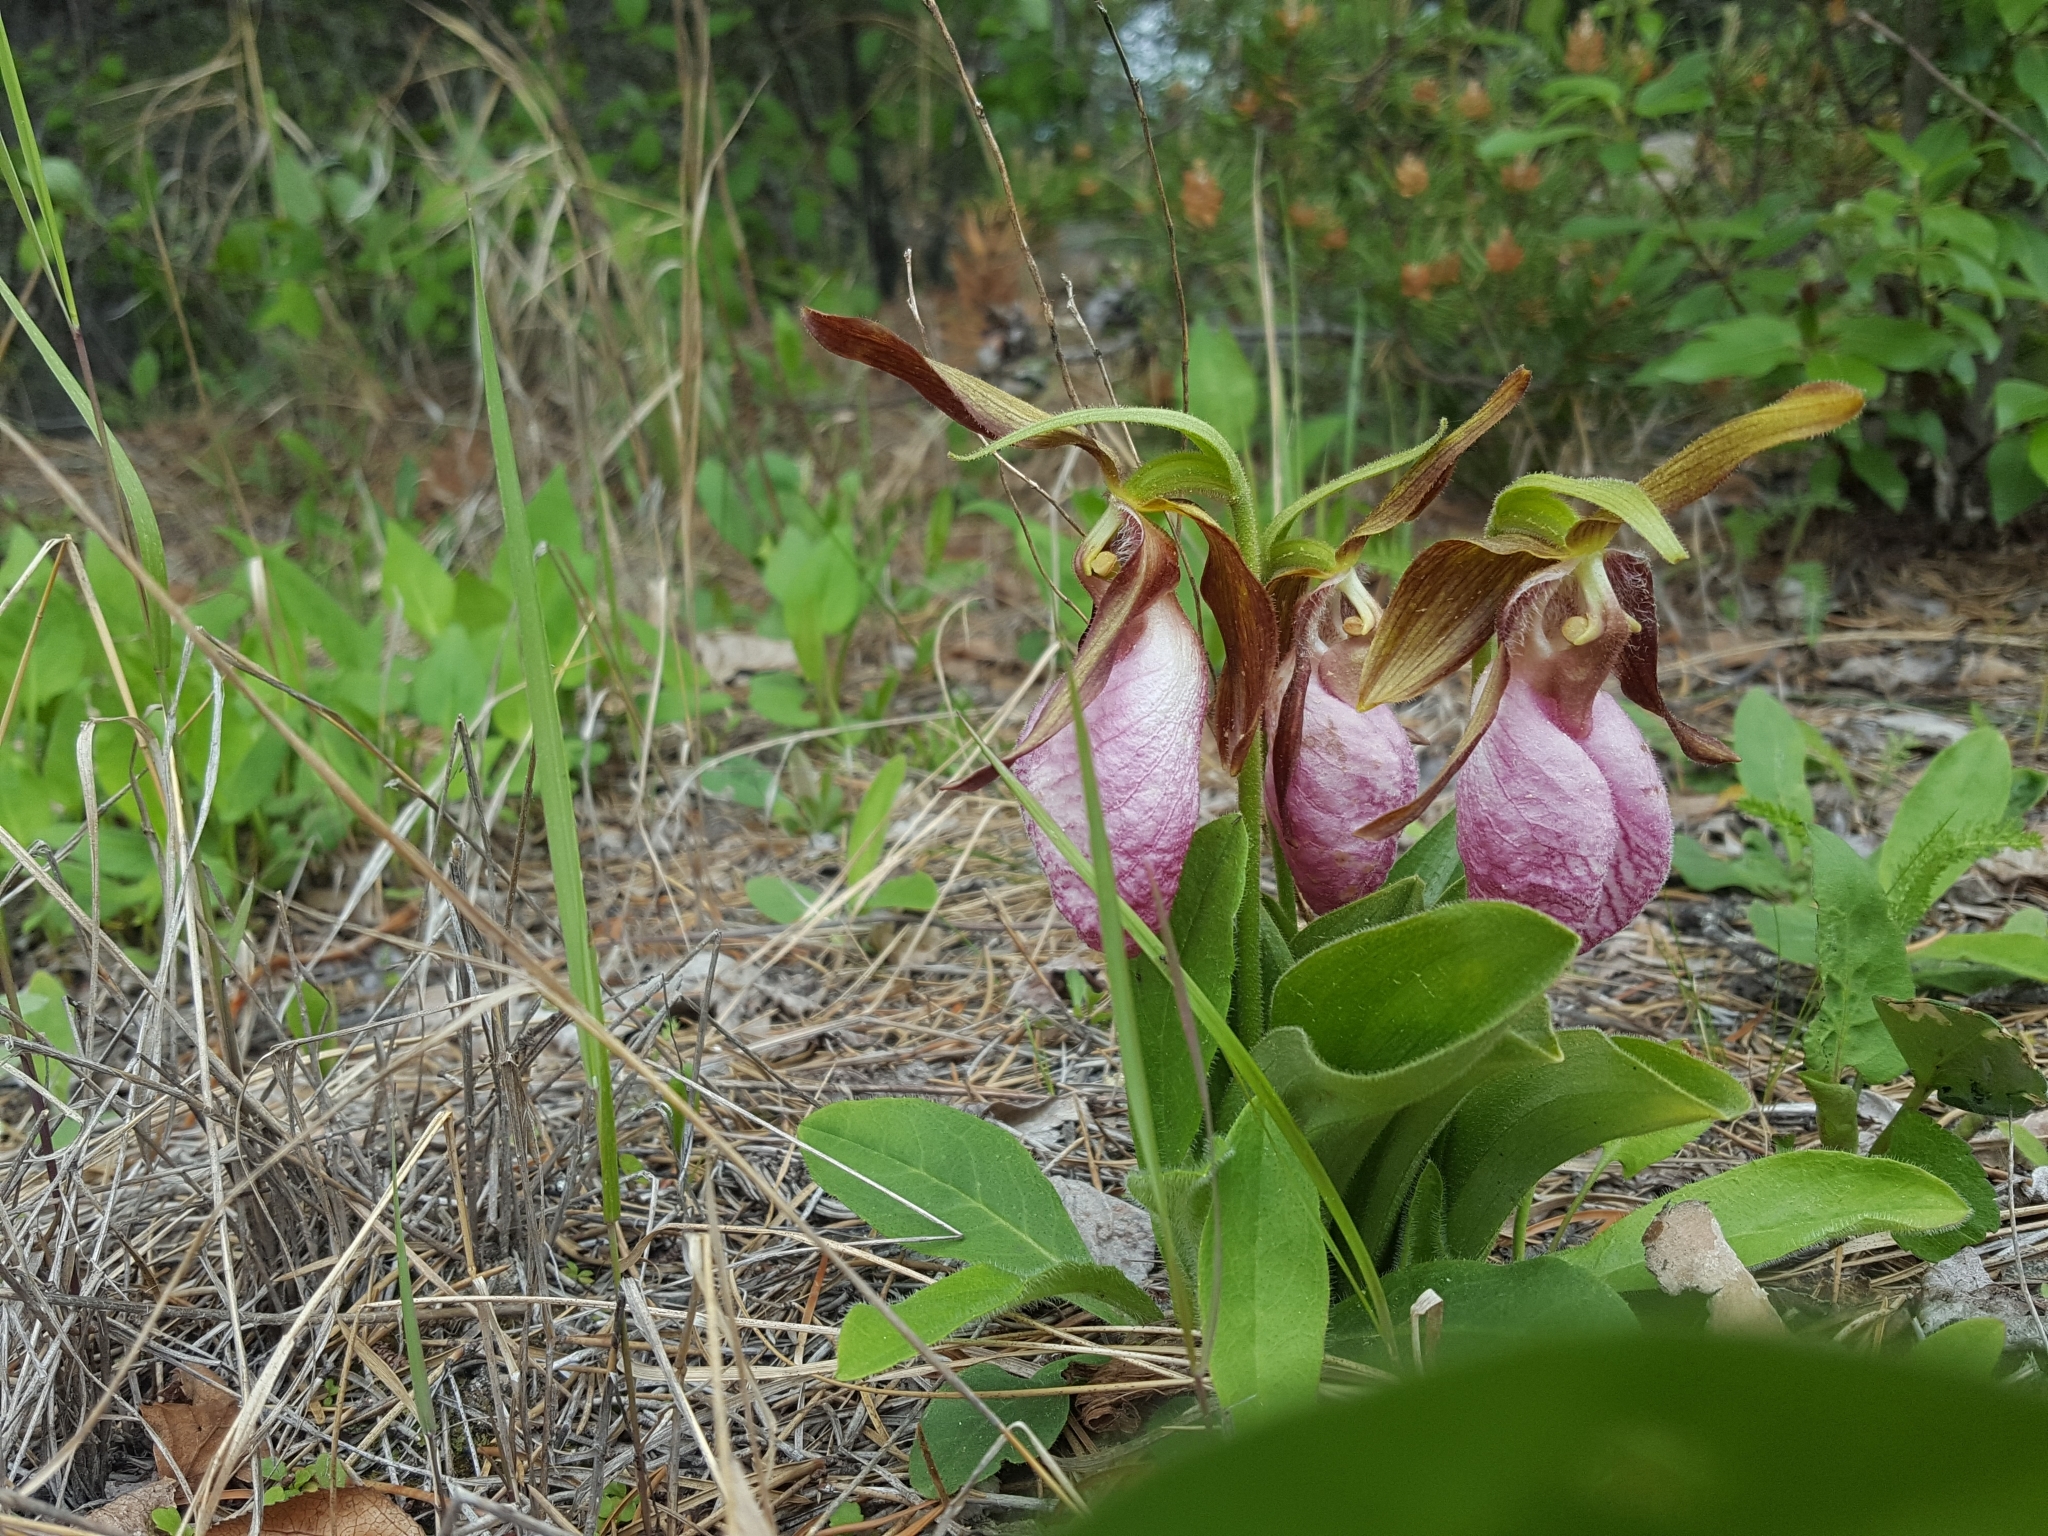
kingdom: Plantae
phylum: Tracheophyta
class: Liliopsida
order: Asparagales
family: Orchidaceae
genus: Cypripedium
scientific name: Cypripedium acaule
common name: Pink lady's-slipper
